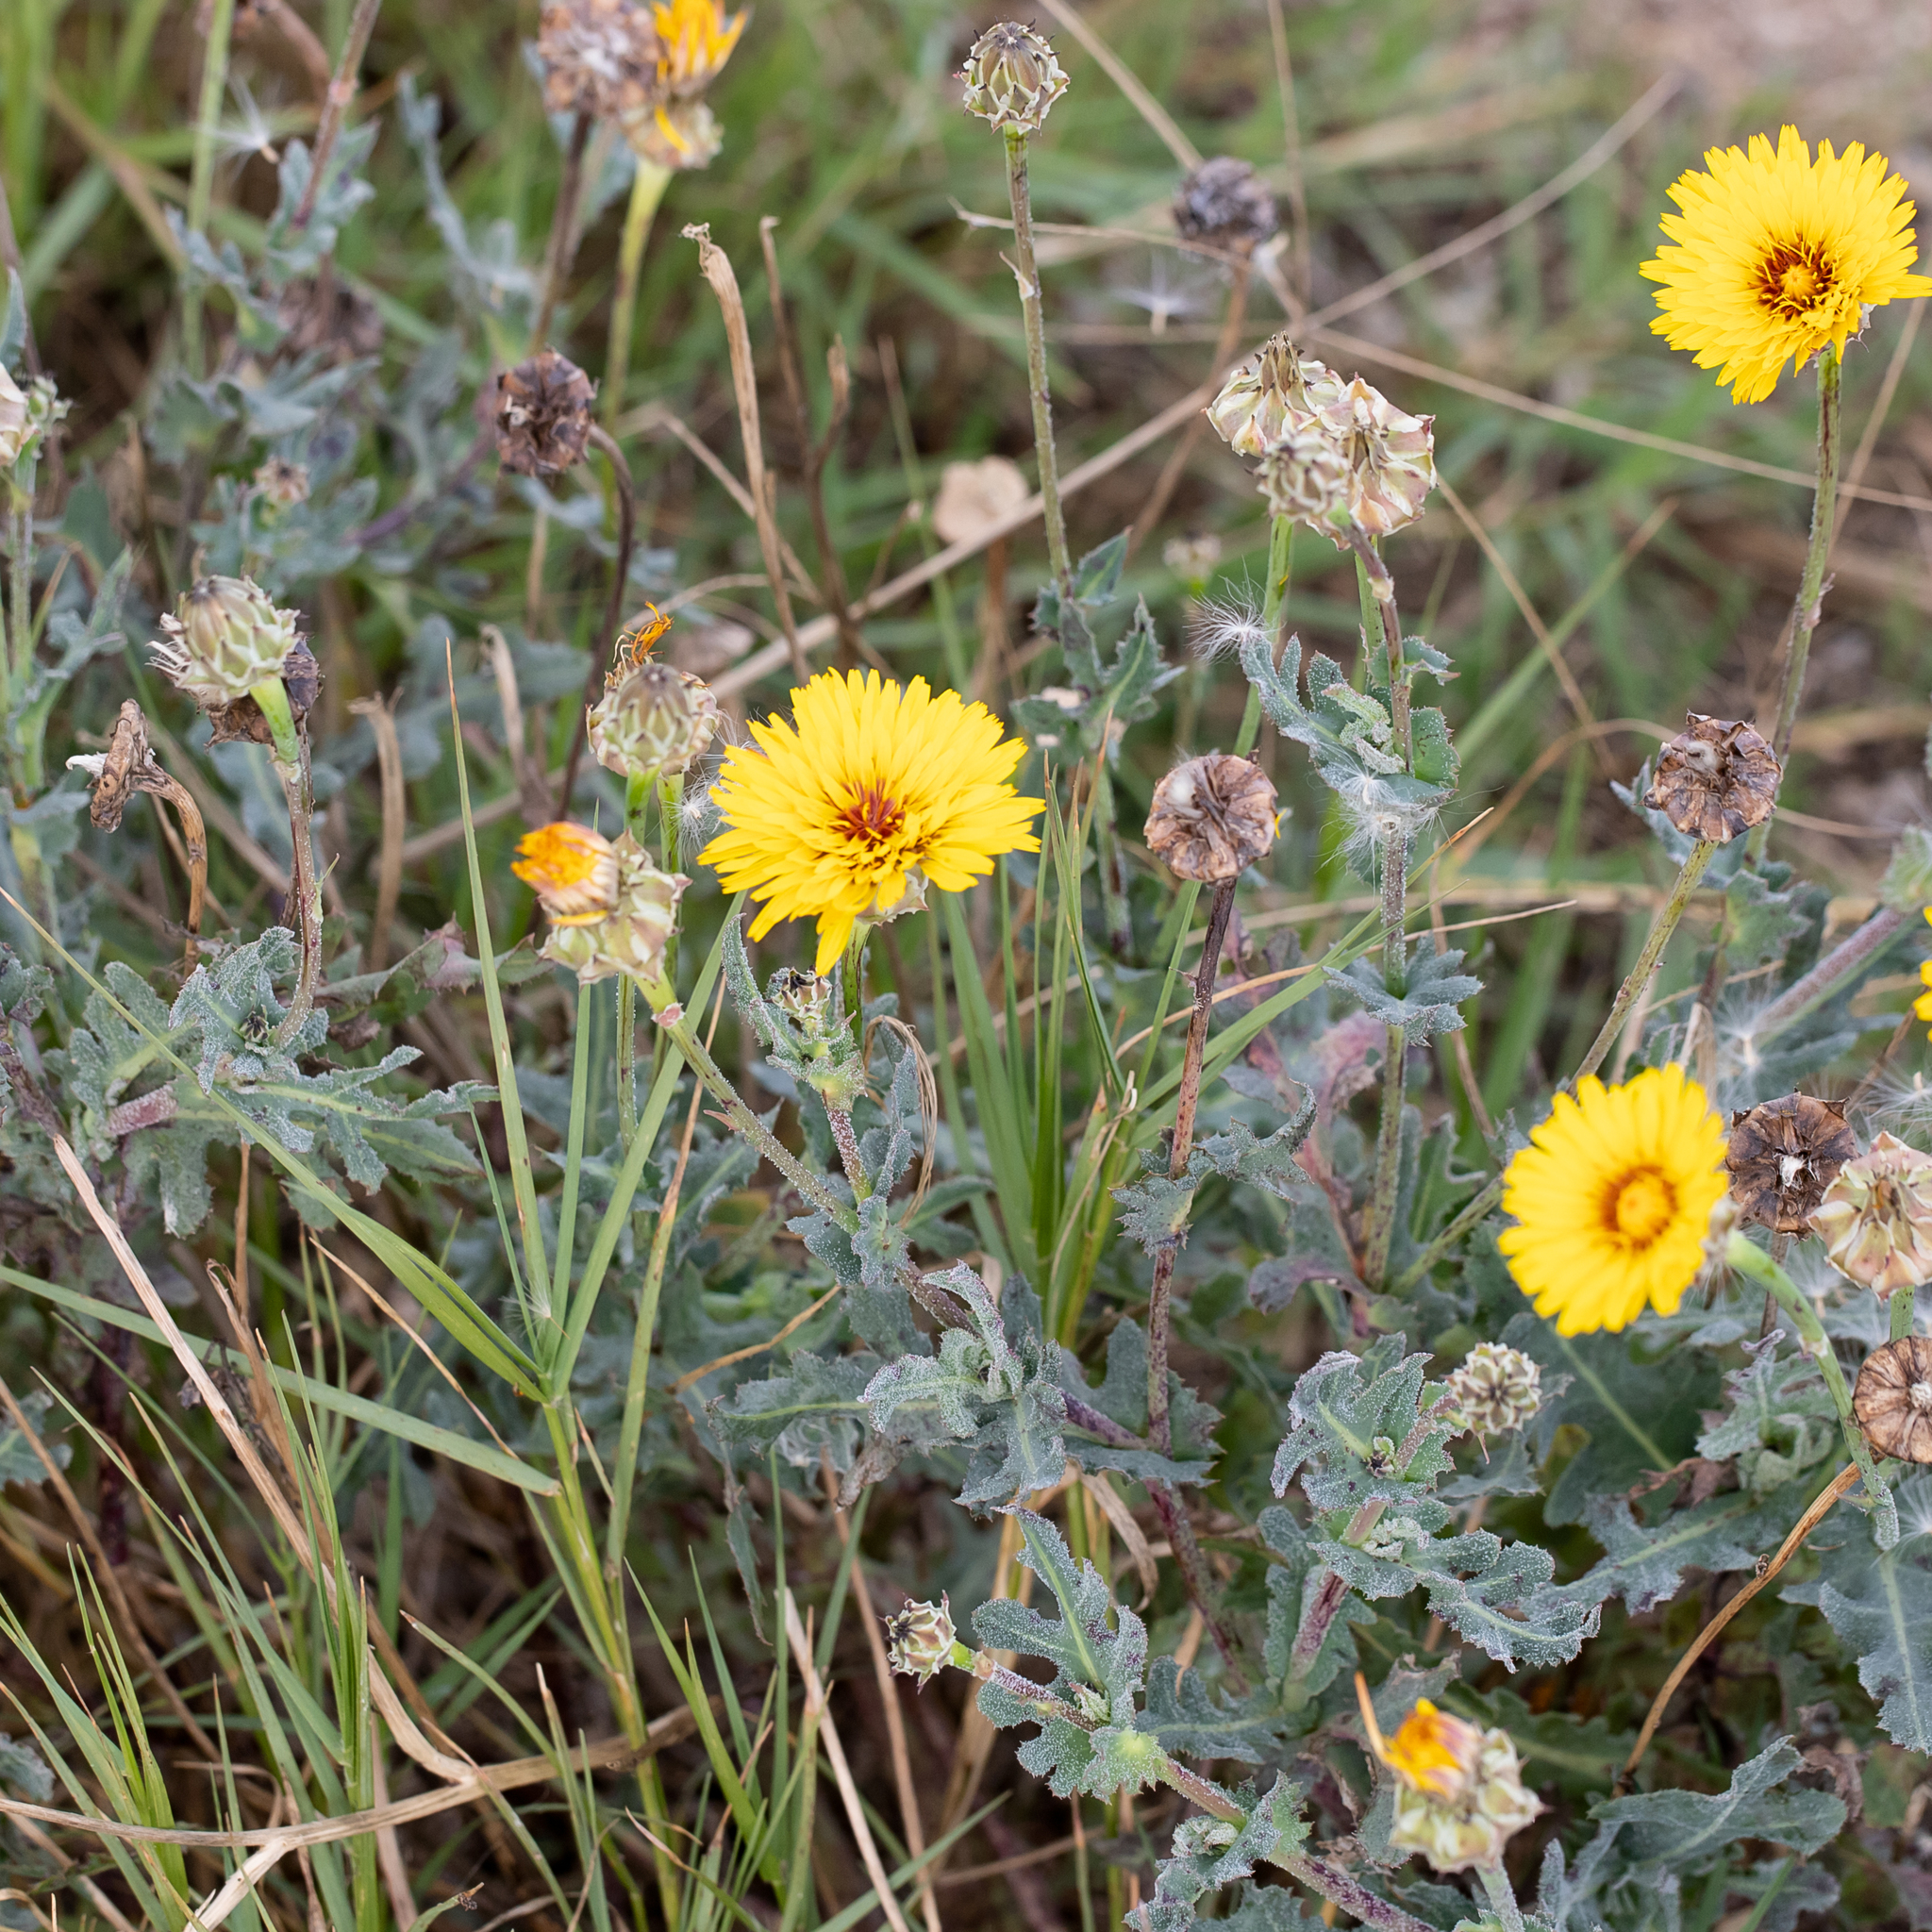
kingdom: Plantae
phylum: Tracheophyta
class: Magnoliopsida
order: Asterales
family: Asteraceae
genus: Reichardia
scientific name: Reichardia tingitana
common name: Reichardia
